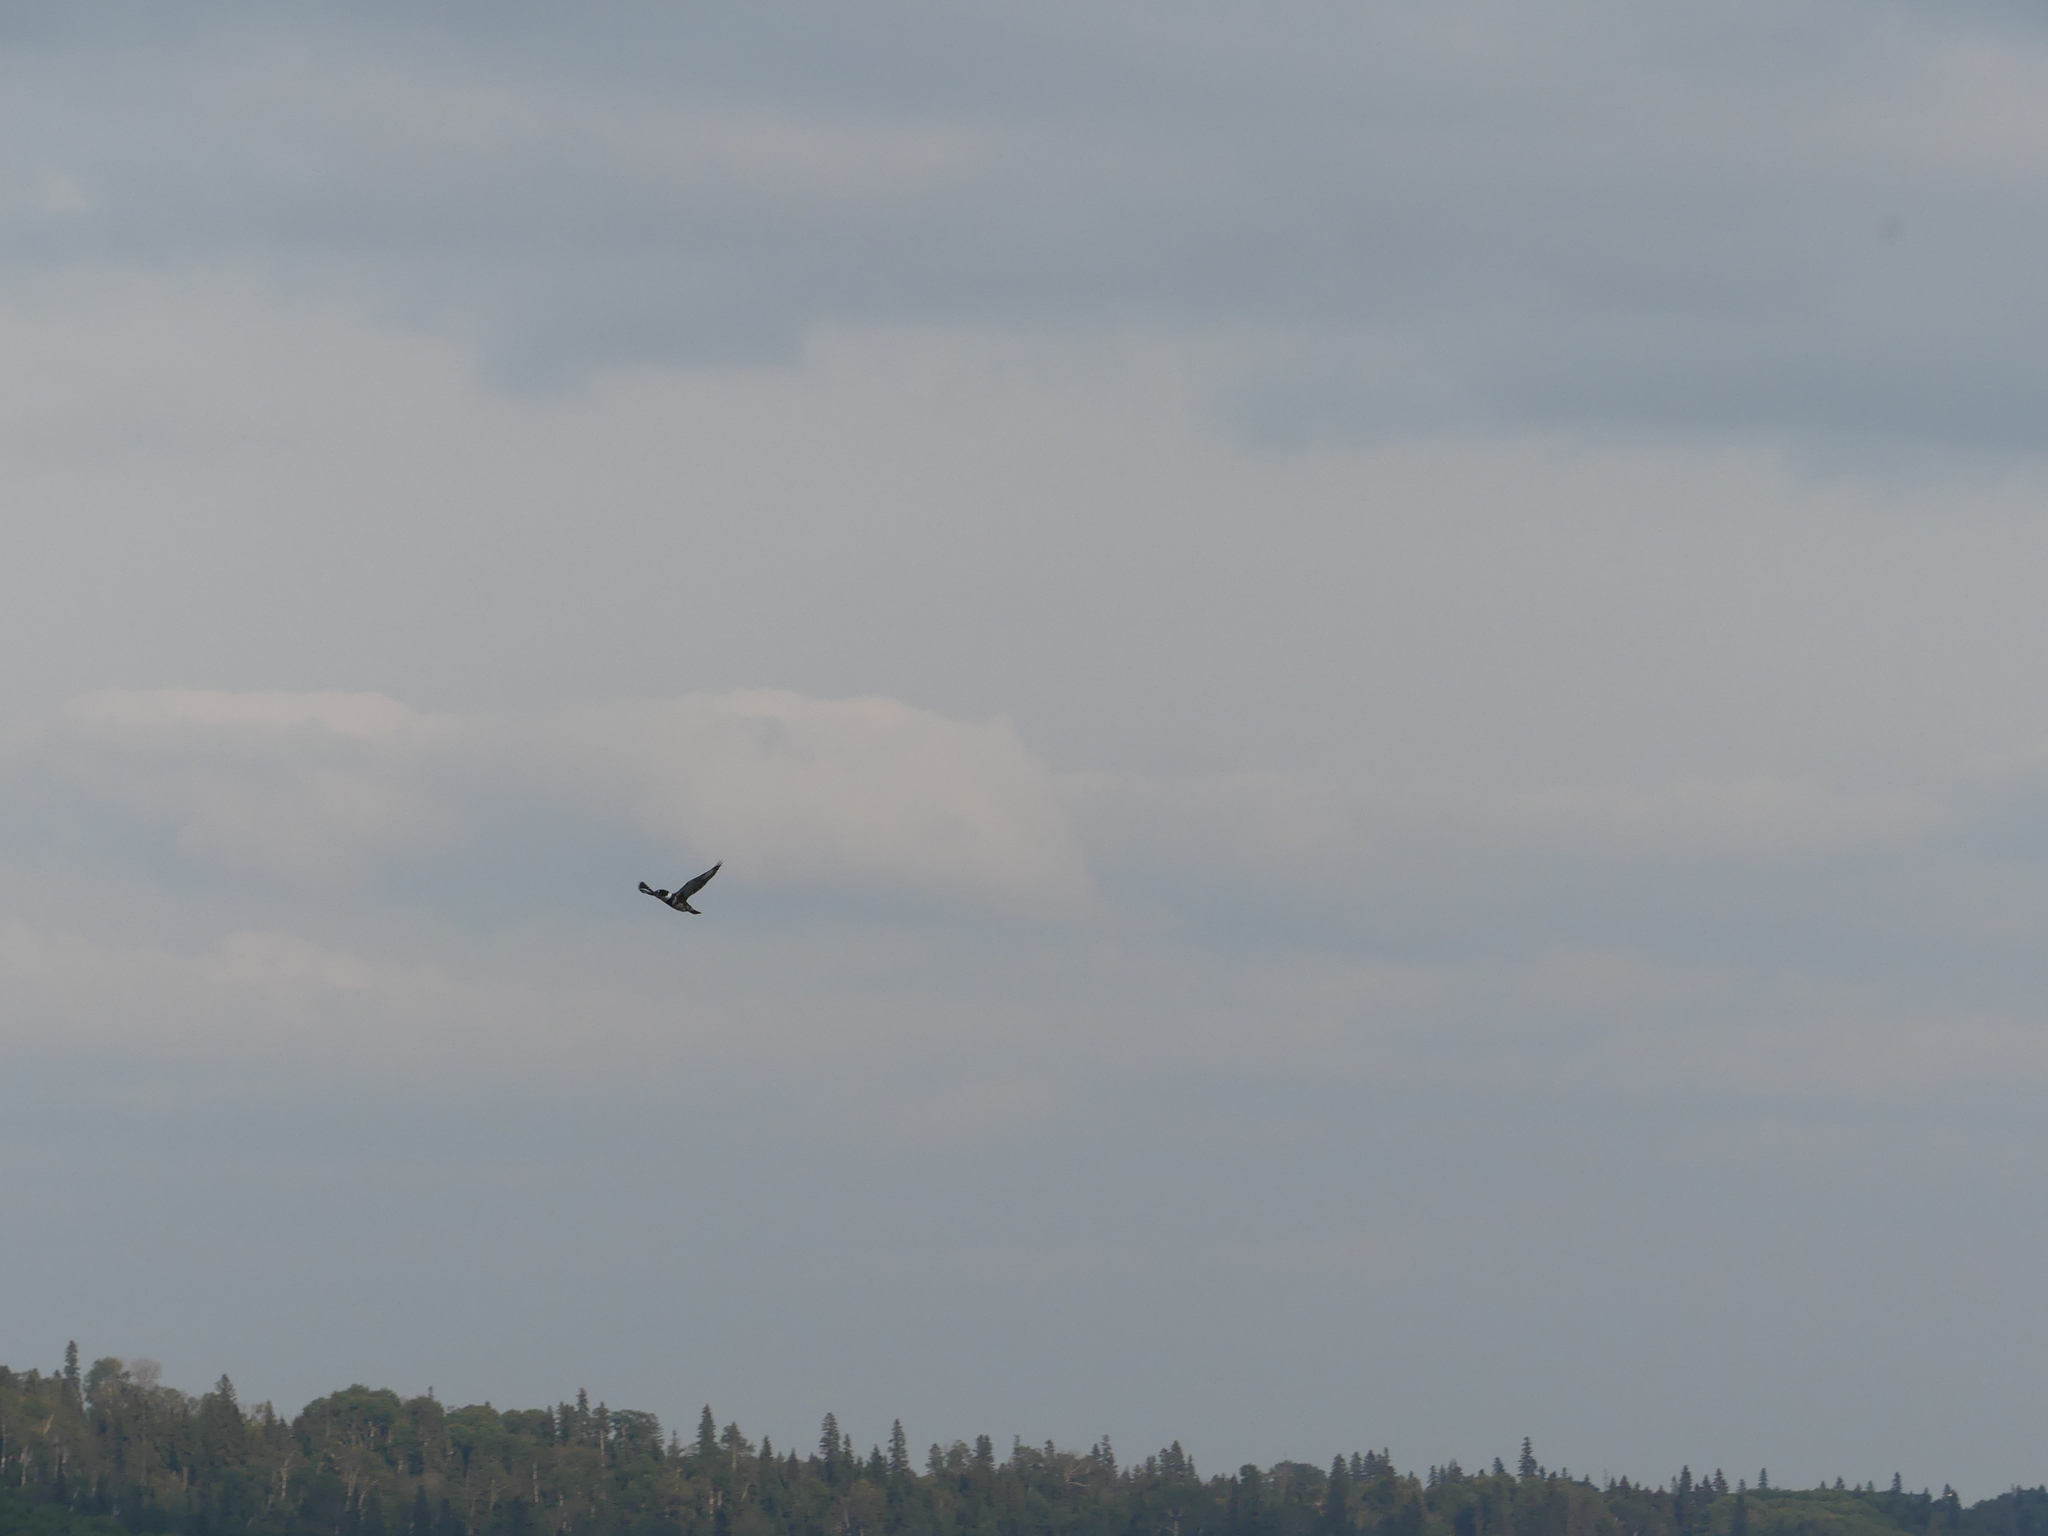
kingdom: Animalia
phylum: Chordata
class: Aves
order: Coraciiformes
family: Alcedinidae
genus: Megaceryle
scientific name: Megaceryle alcyon
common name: Belted kingfisher
